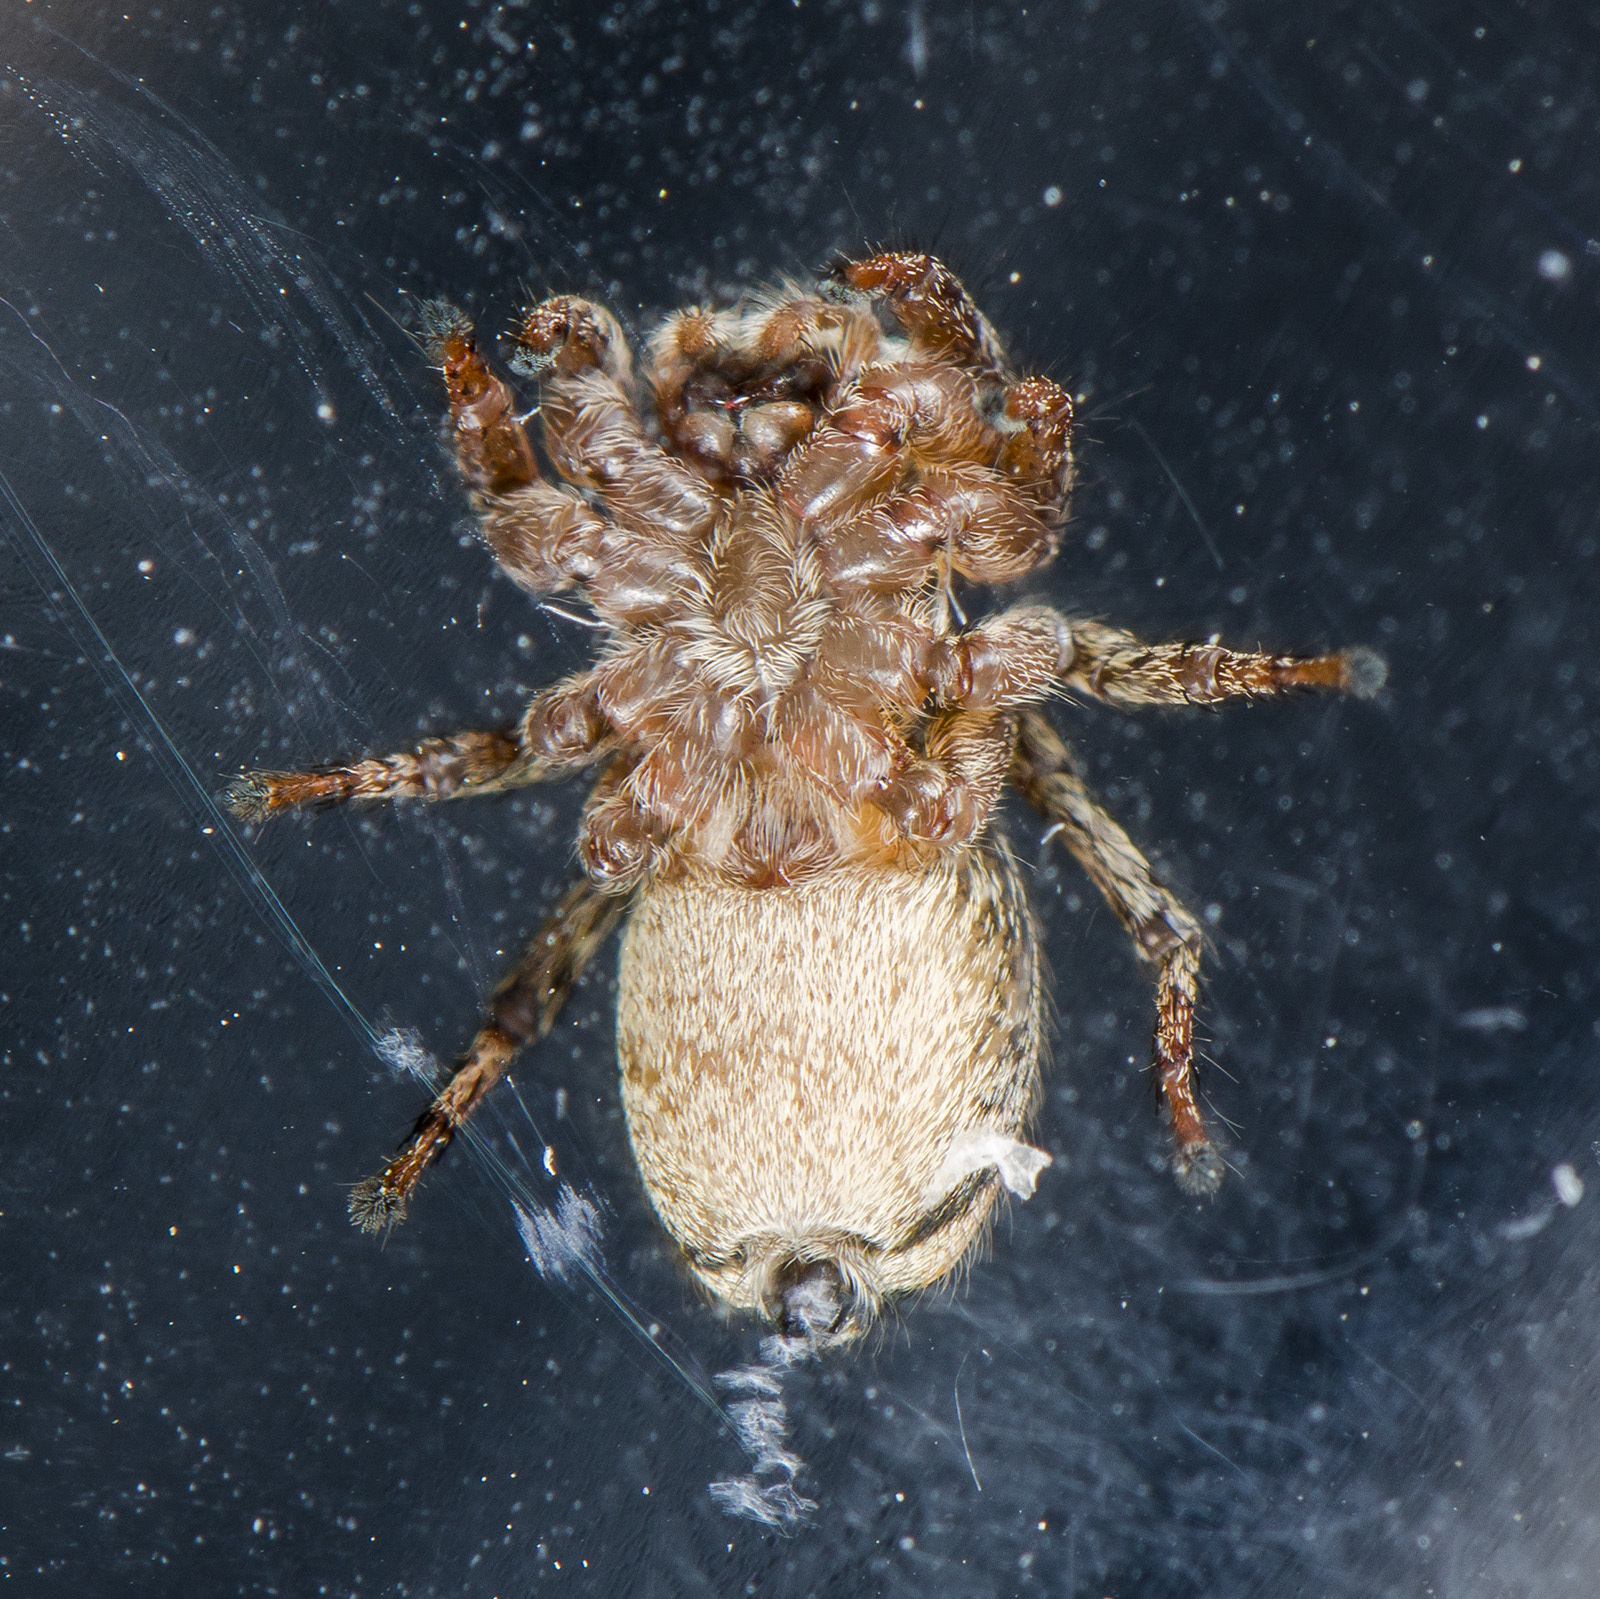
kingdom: Animalia
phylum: Arthropoda
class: Arachnida
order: Araneae
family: Salticidae
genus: Phlegra
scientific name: Phlegra fasciata
